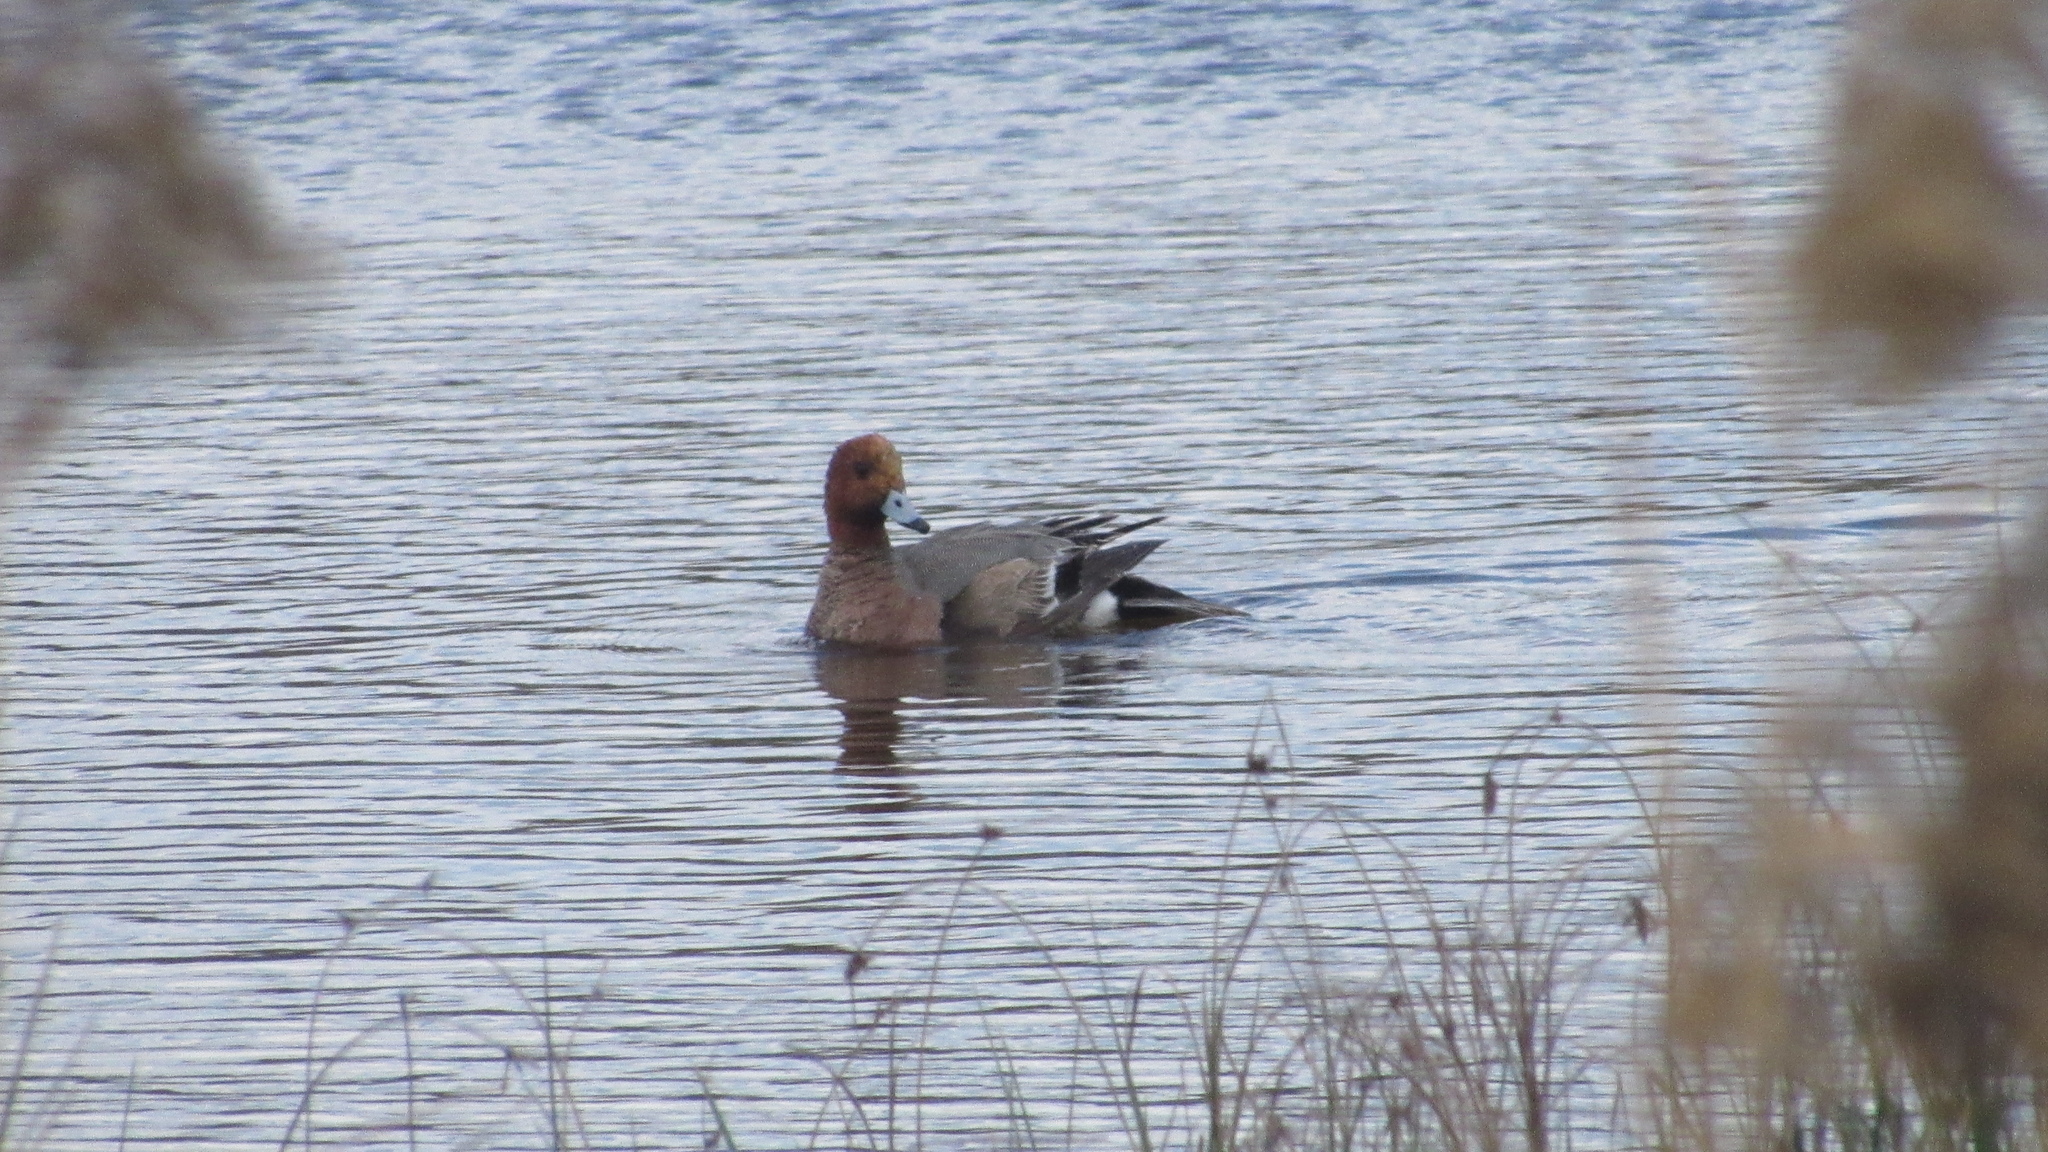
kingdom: Animalia
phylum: Chordata
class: Aves
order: Anseriformes
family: Anatidae
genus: Mareca
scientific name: Mareca penelope
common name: Eurasian wigeon
